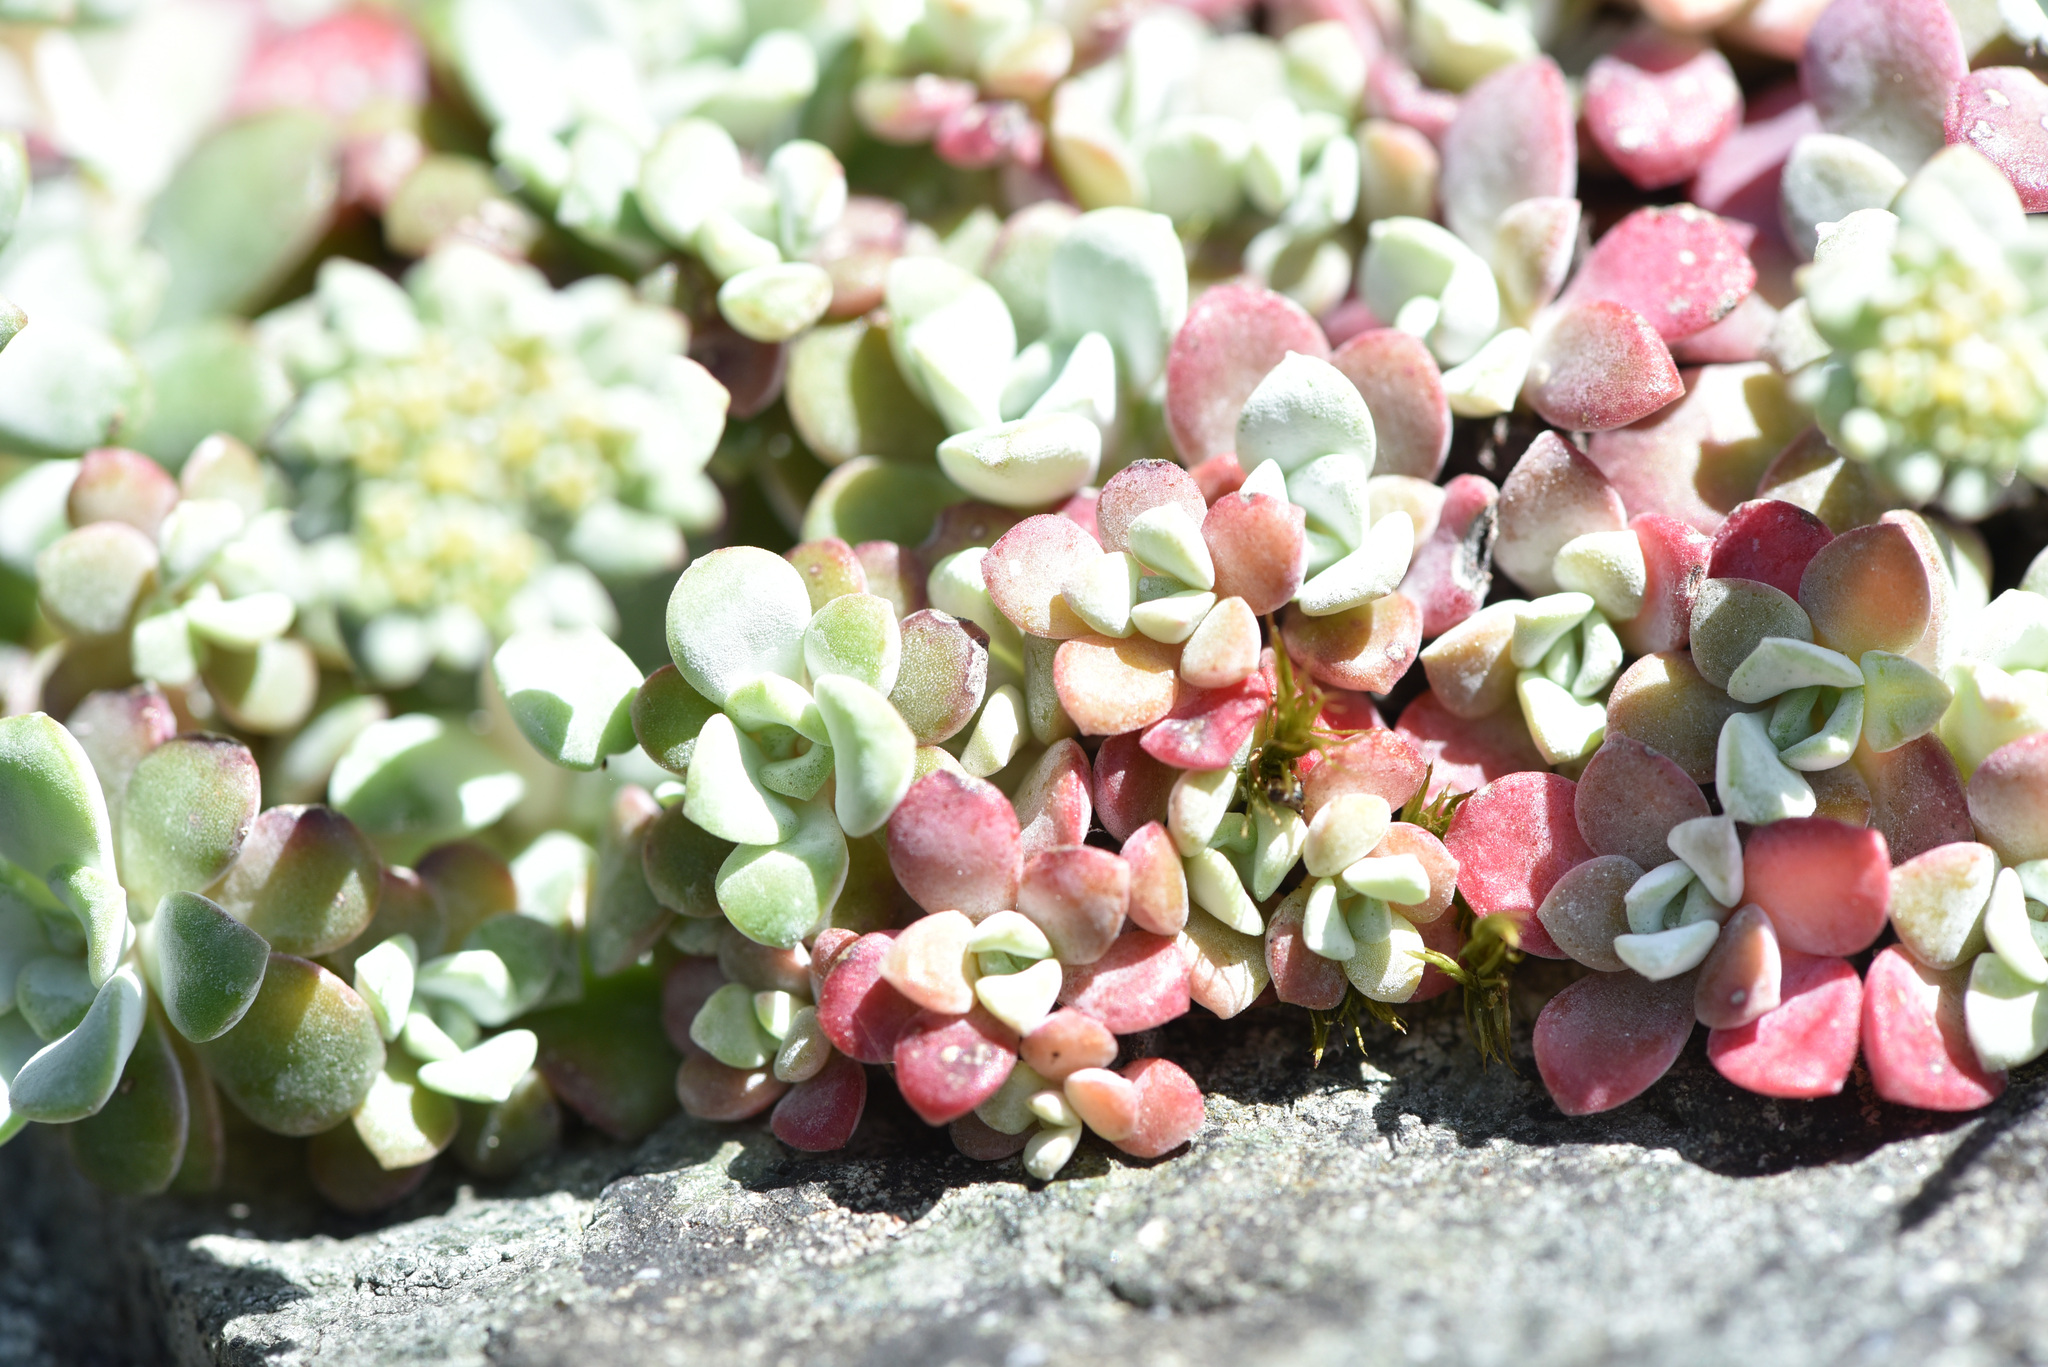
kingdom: Plantae
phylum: Tracheophyta
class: Magnoliopsida
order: Saxifragales
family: Crassulaceae
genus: Sedum
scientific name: Sedum spathulifolium
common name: Colorado stonecrop
